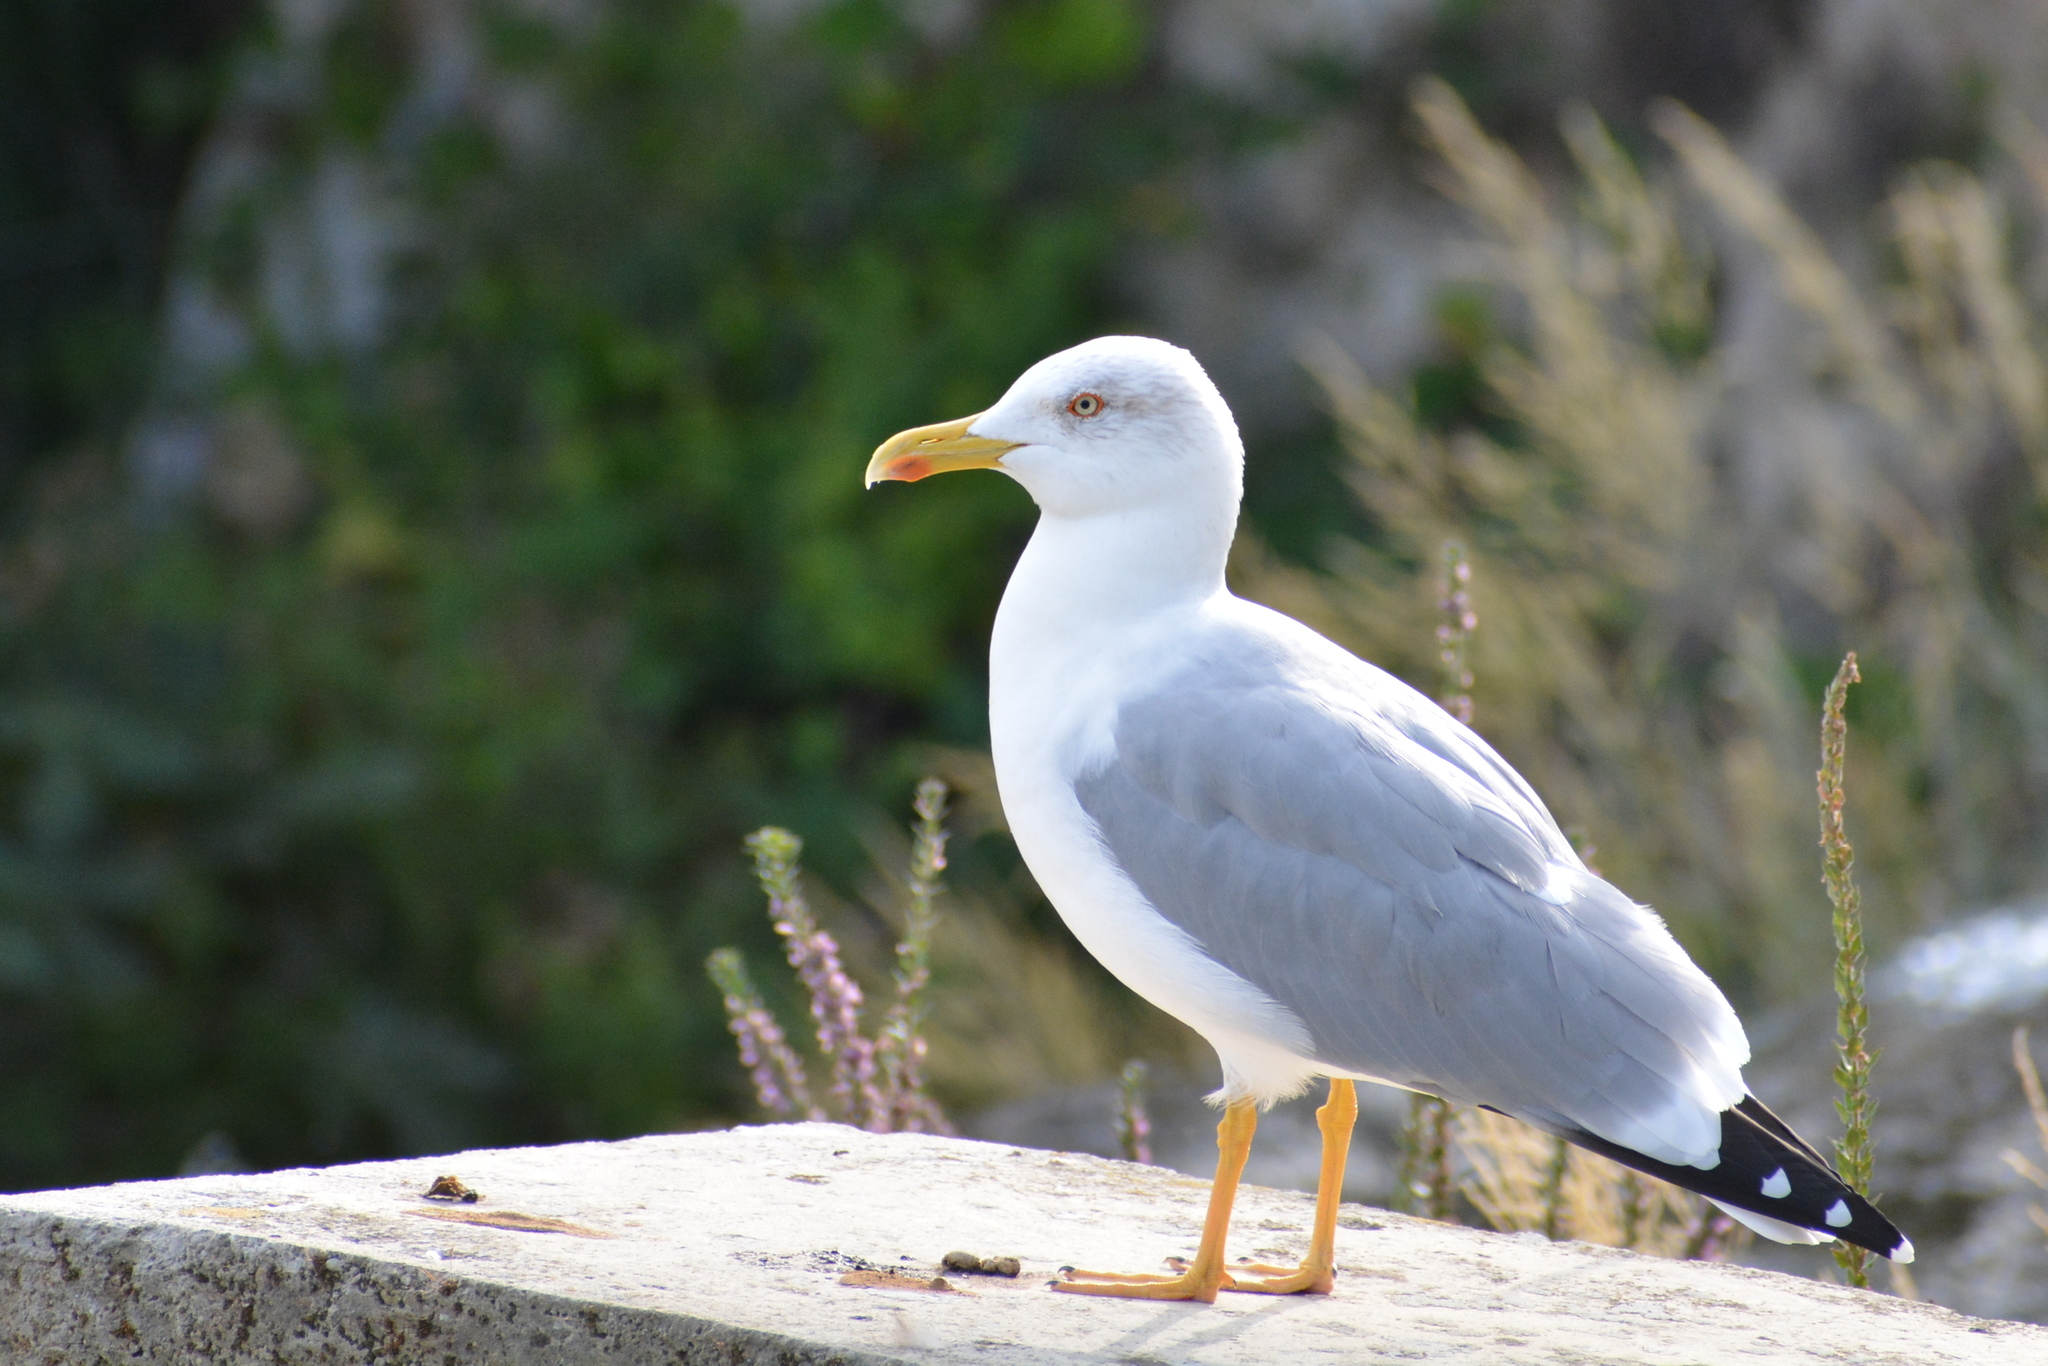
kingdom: Animalia
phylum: Chordata
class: Aves
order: Charadriiformes
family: Laridae
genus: Larus
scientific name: Larus michahellis
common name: Yellow-legged gull
